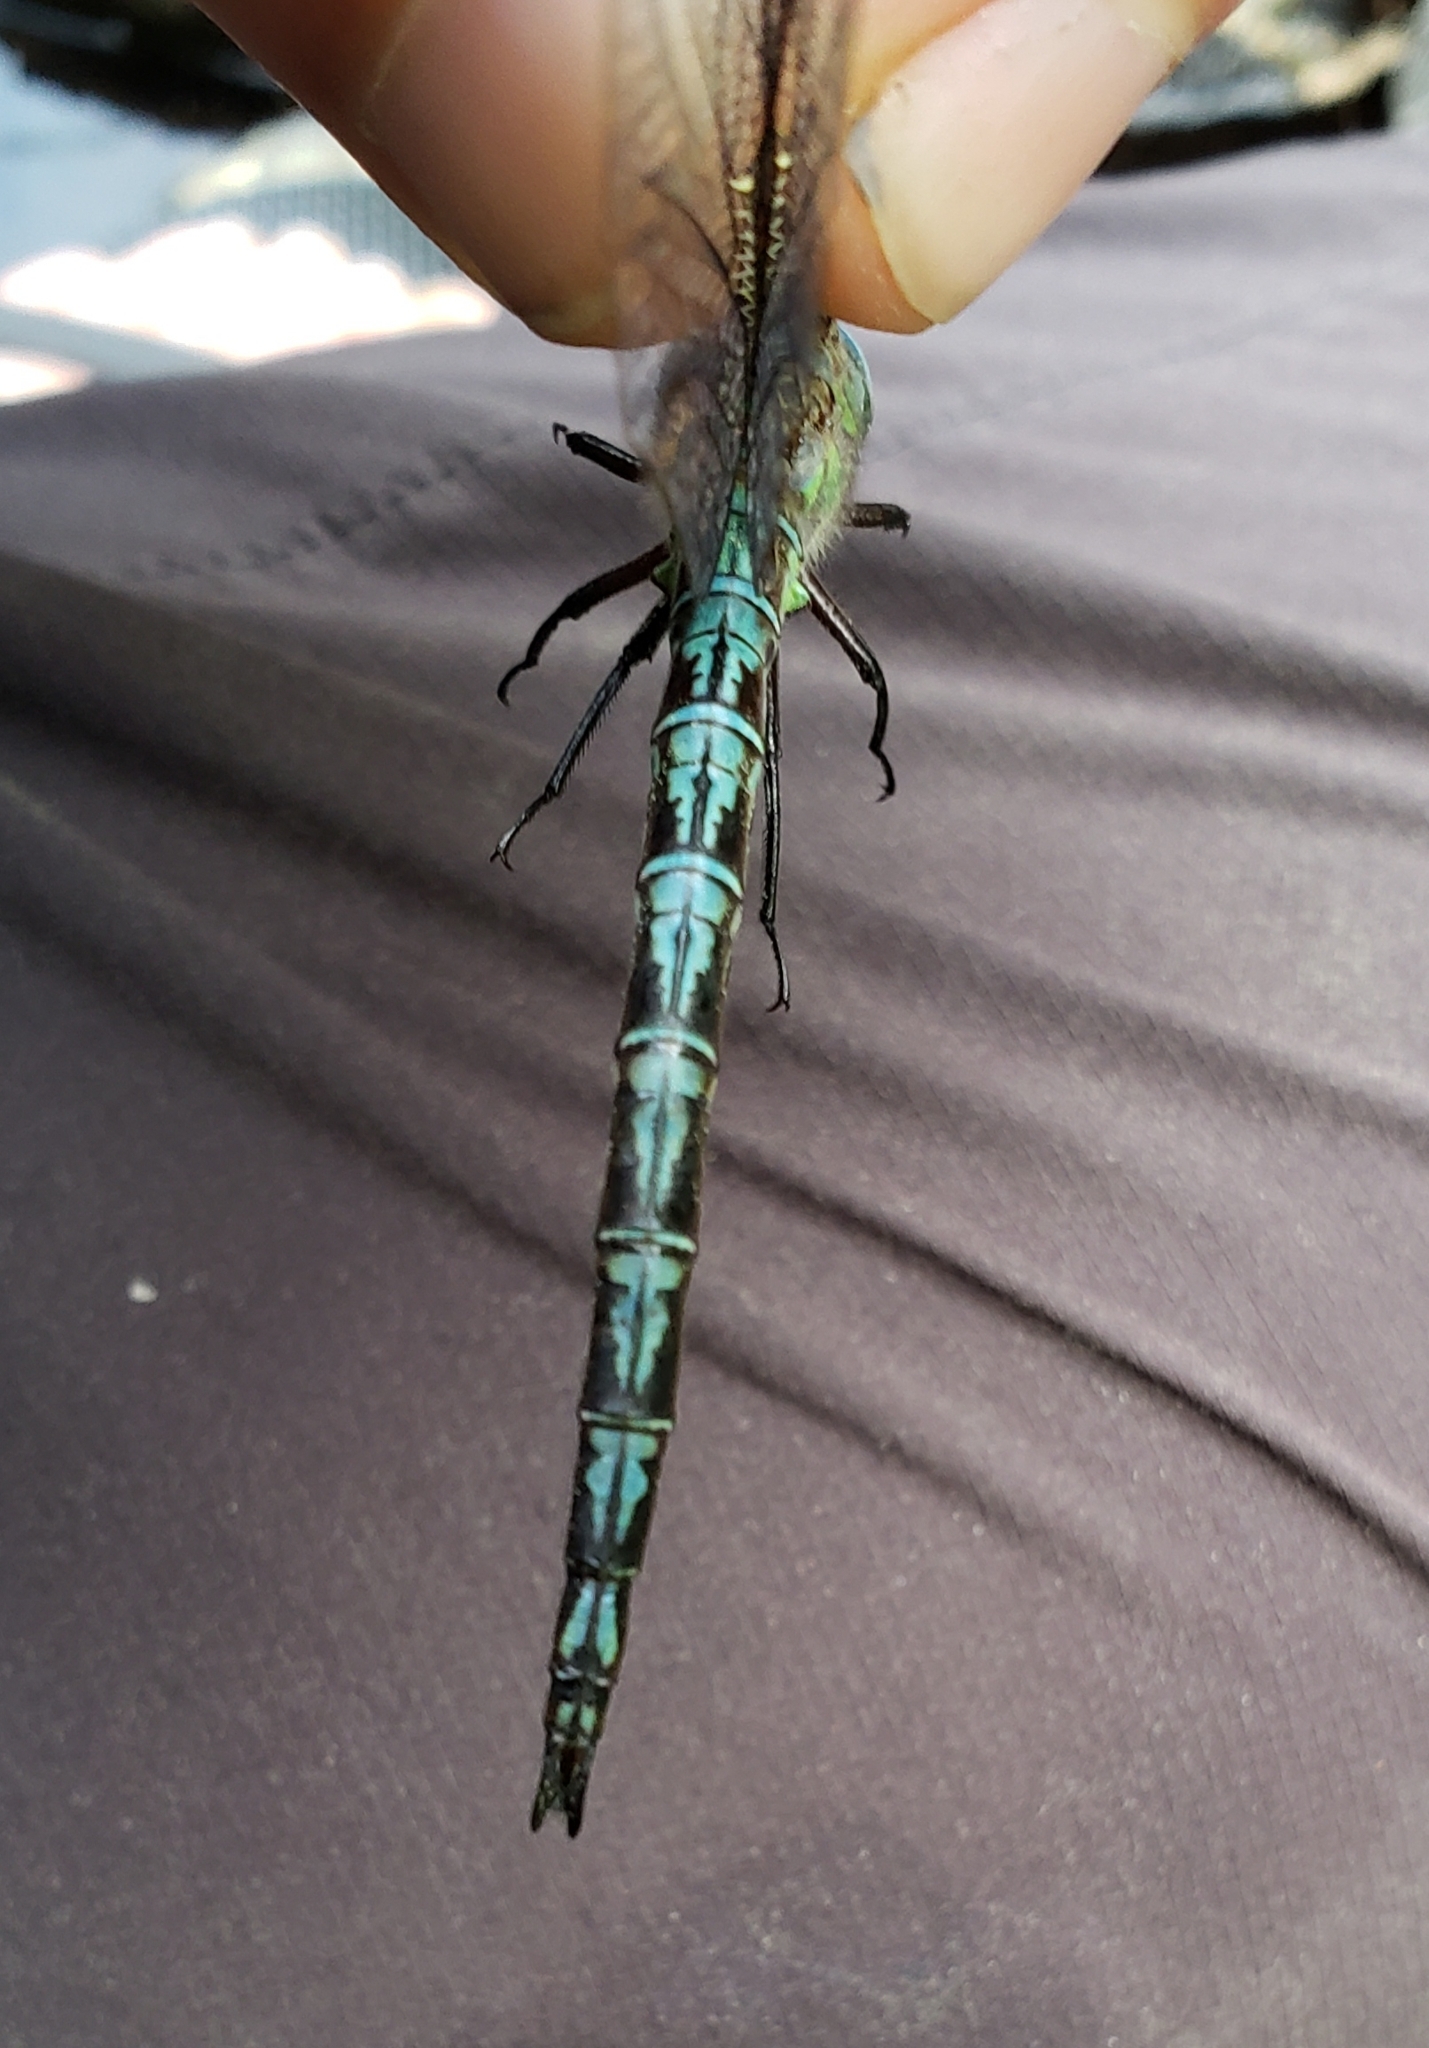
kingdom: Animalia
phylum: Arthropoda
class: Insecta
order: Odonata
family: Aeshnidae
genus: Nasiaeschna
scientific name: Nasiaeschna pentacantha
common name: Cyrano darner
